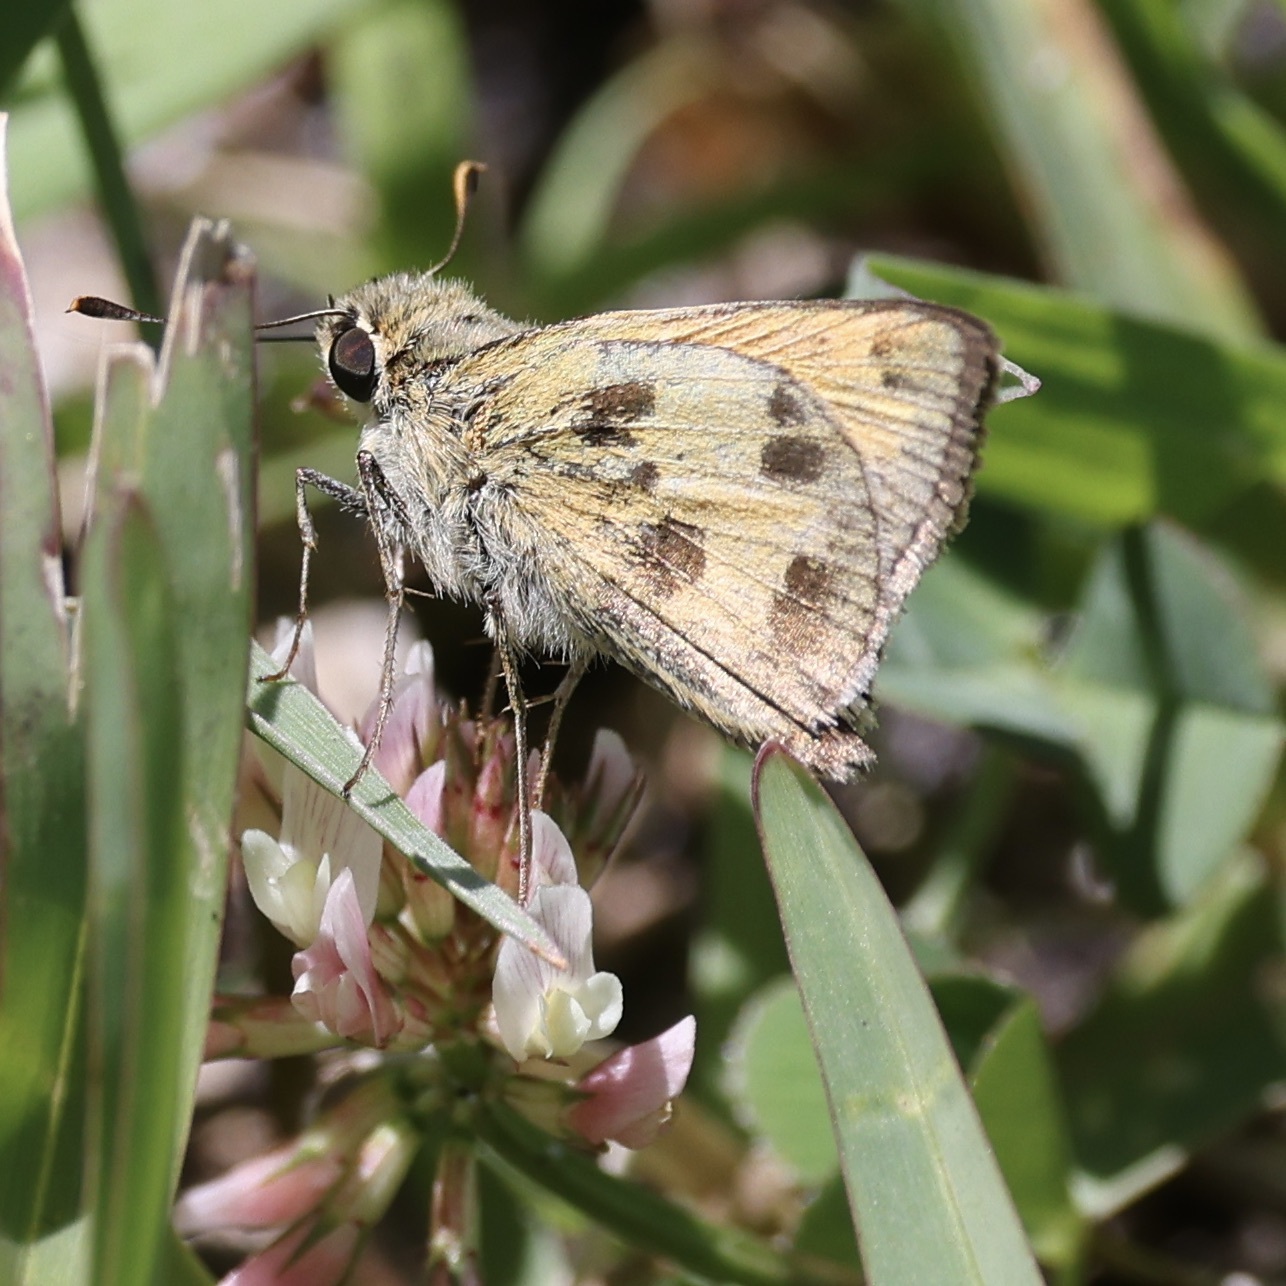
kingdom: Animalia
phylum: Arthropoda
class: Insecta
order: Lepidoptera
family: Hesperiidae
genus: Polites
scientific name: Polites vibex
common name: Whirlabout
